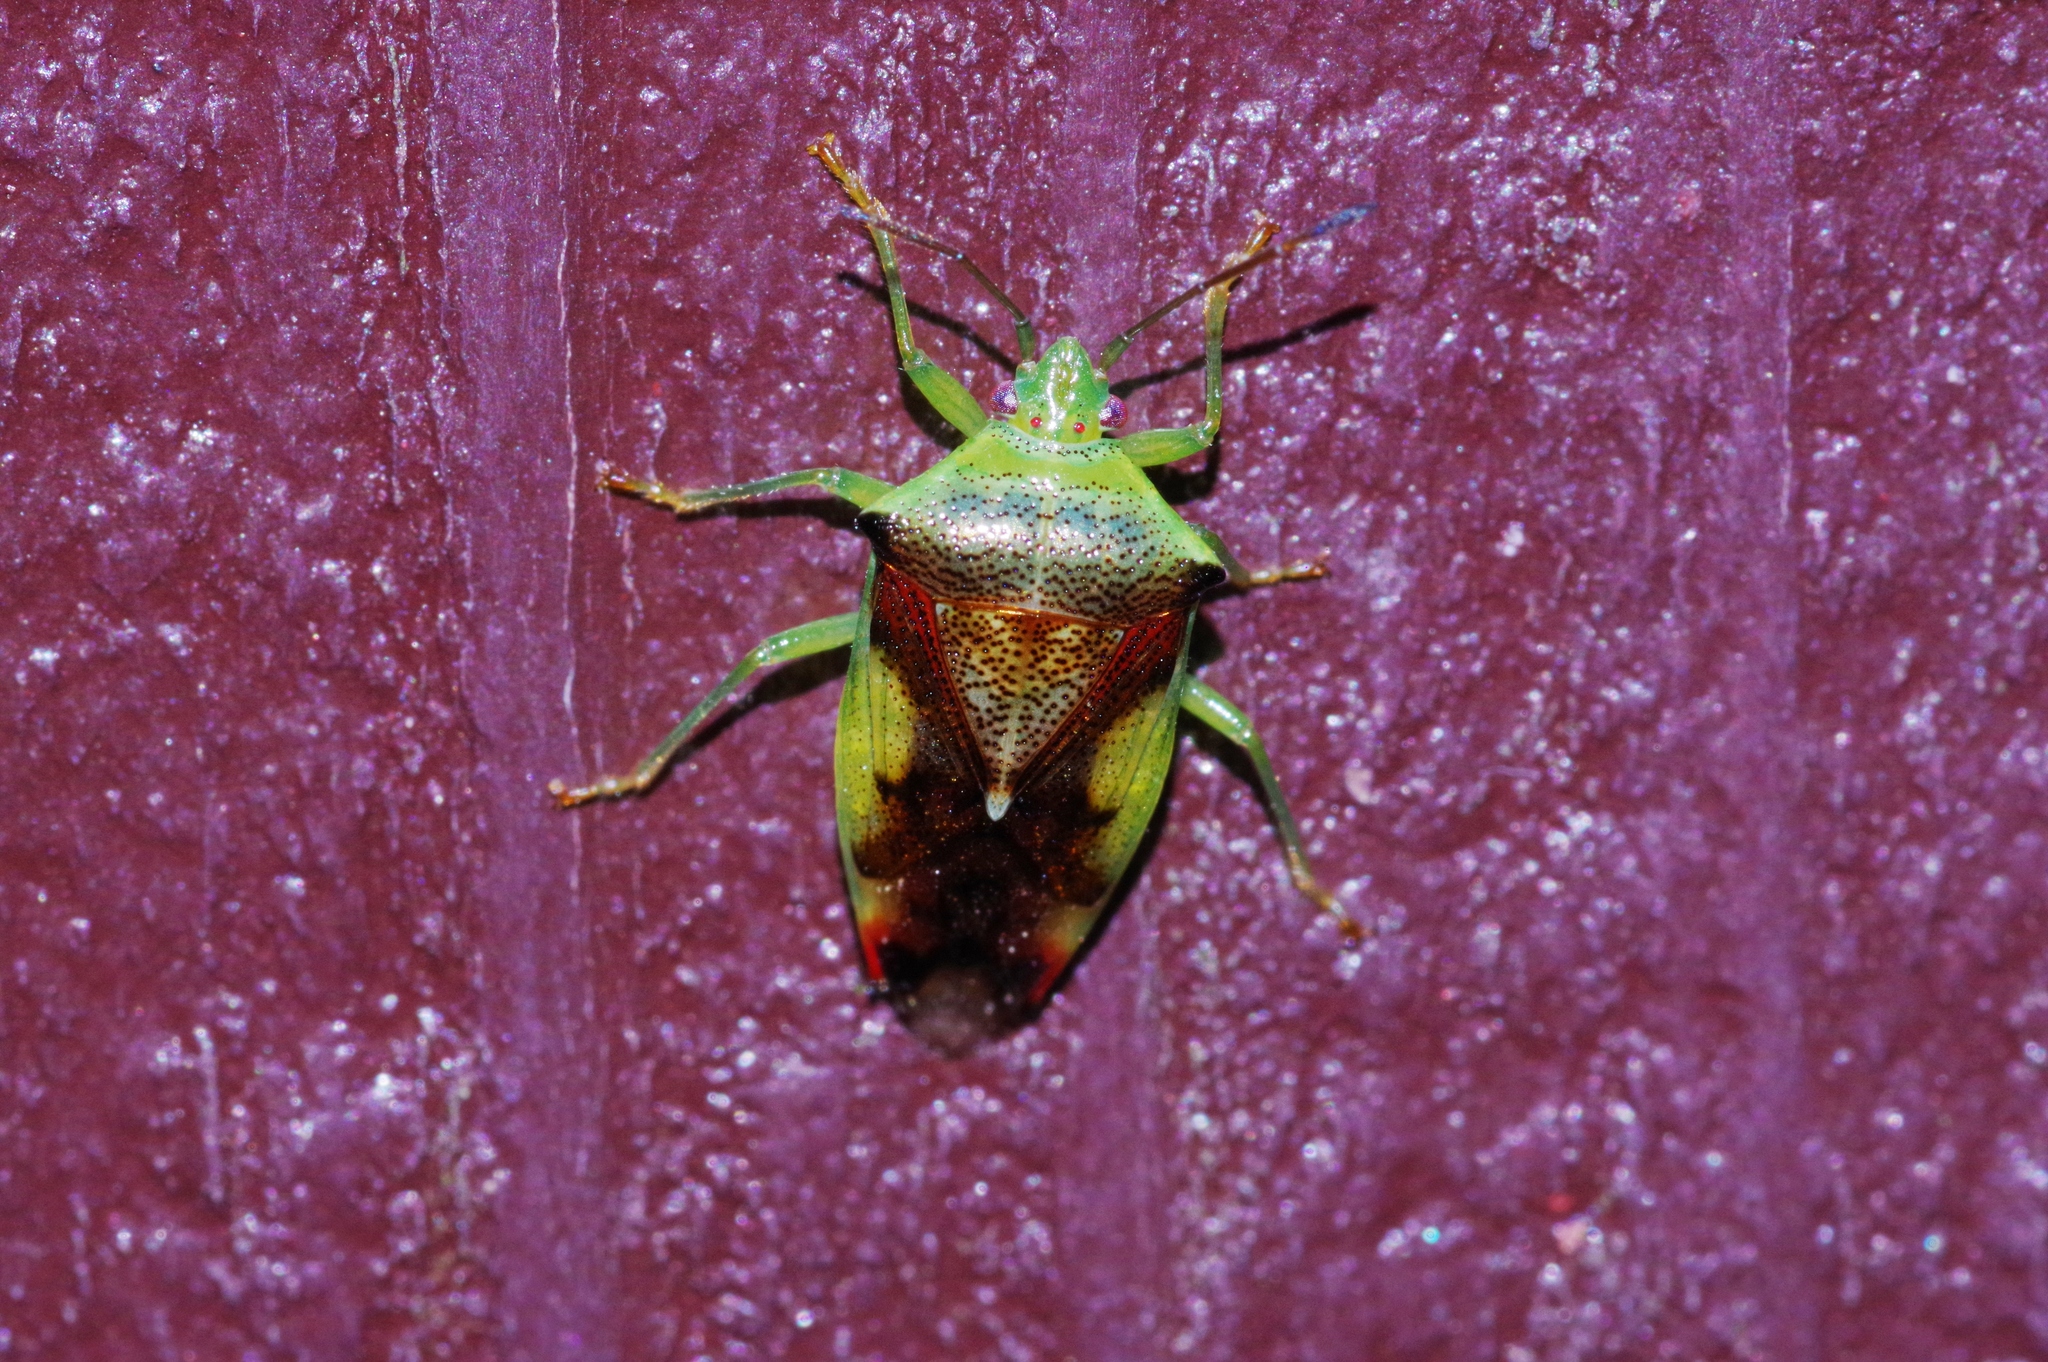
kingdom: Animalia
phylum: Arthropoda
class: Insecta
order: Hemiptera
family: Acanthosomatidae
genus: Elasmostethus
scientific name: Elasmostethus nubilus
